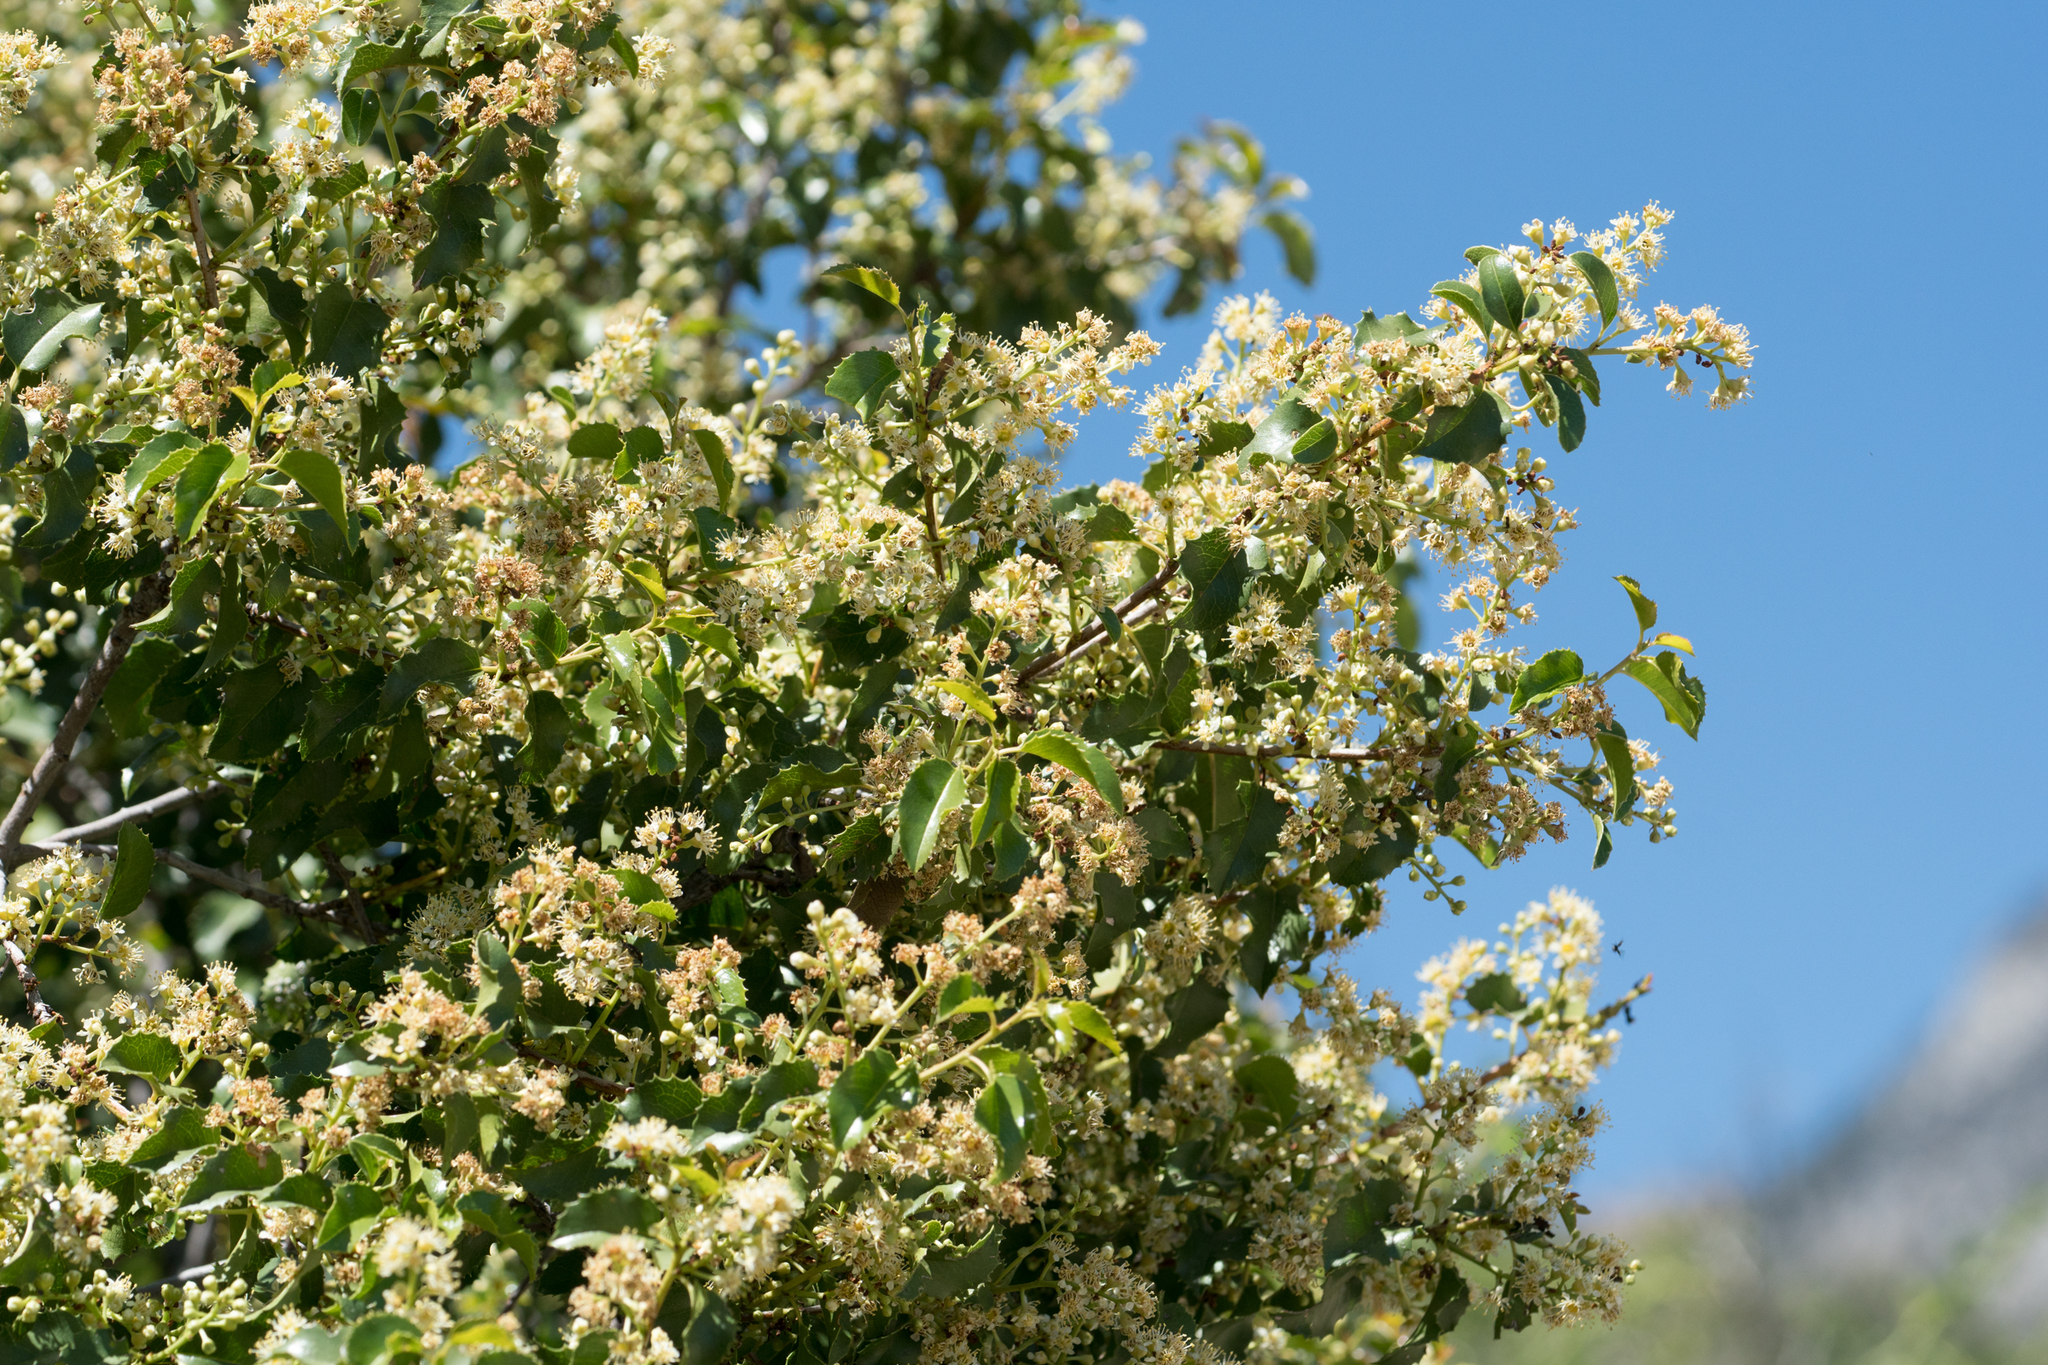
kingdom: Plantae
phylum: Tracheophyta
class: Magnoliopsida
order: Rosales
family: Rosaceae
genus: Prunus
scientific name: Prunus ilicifolia
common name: Hollyleaf cherry
